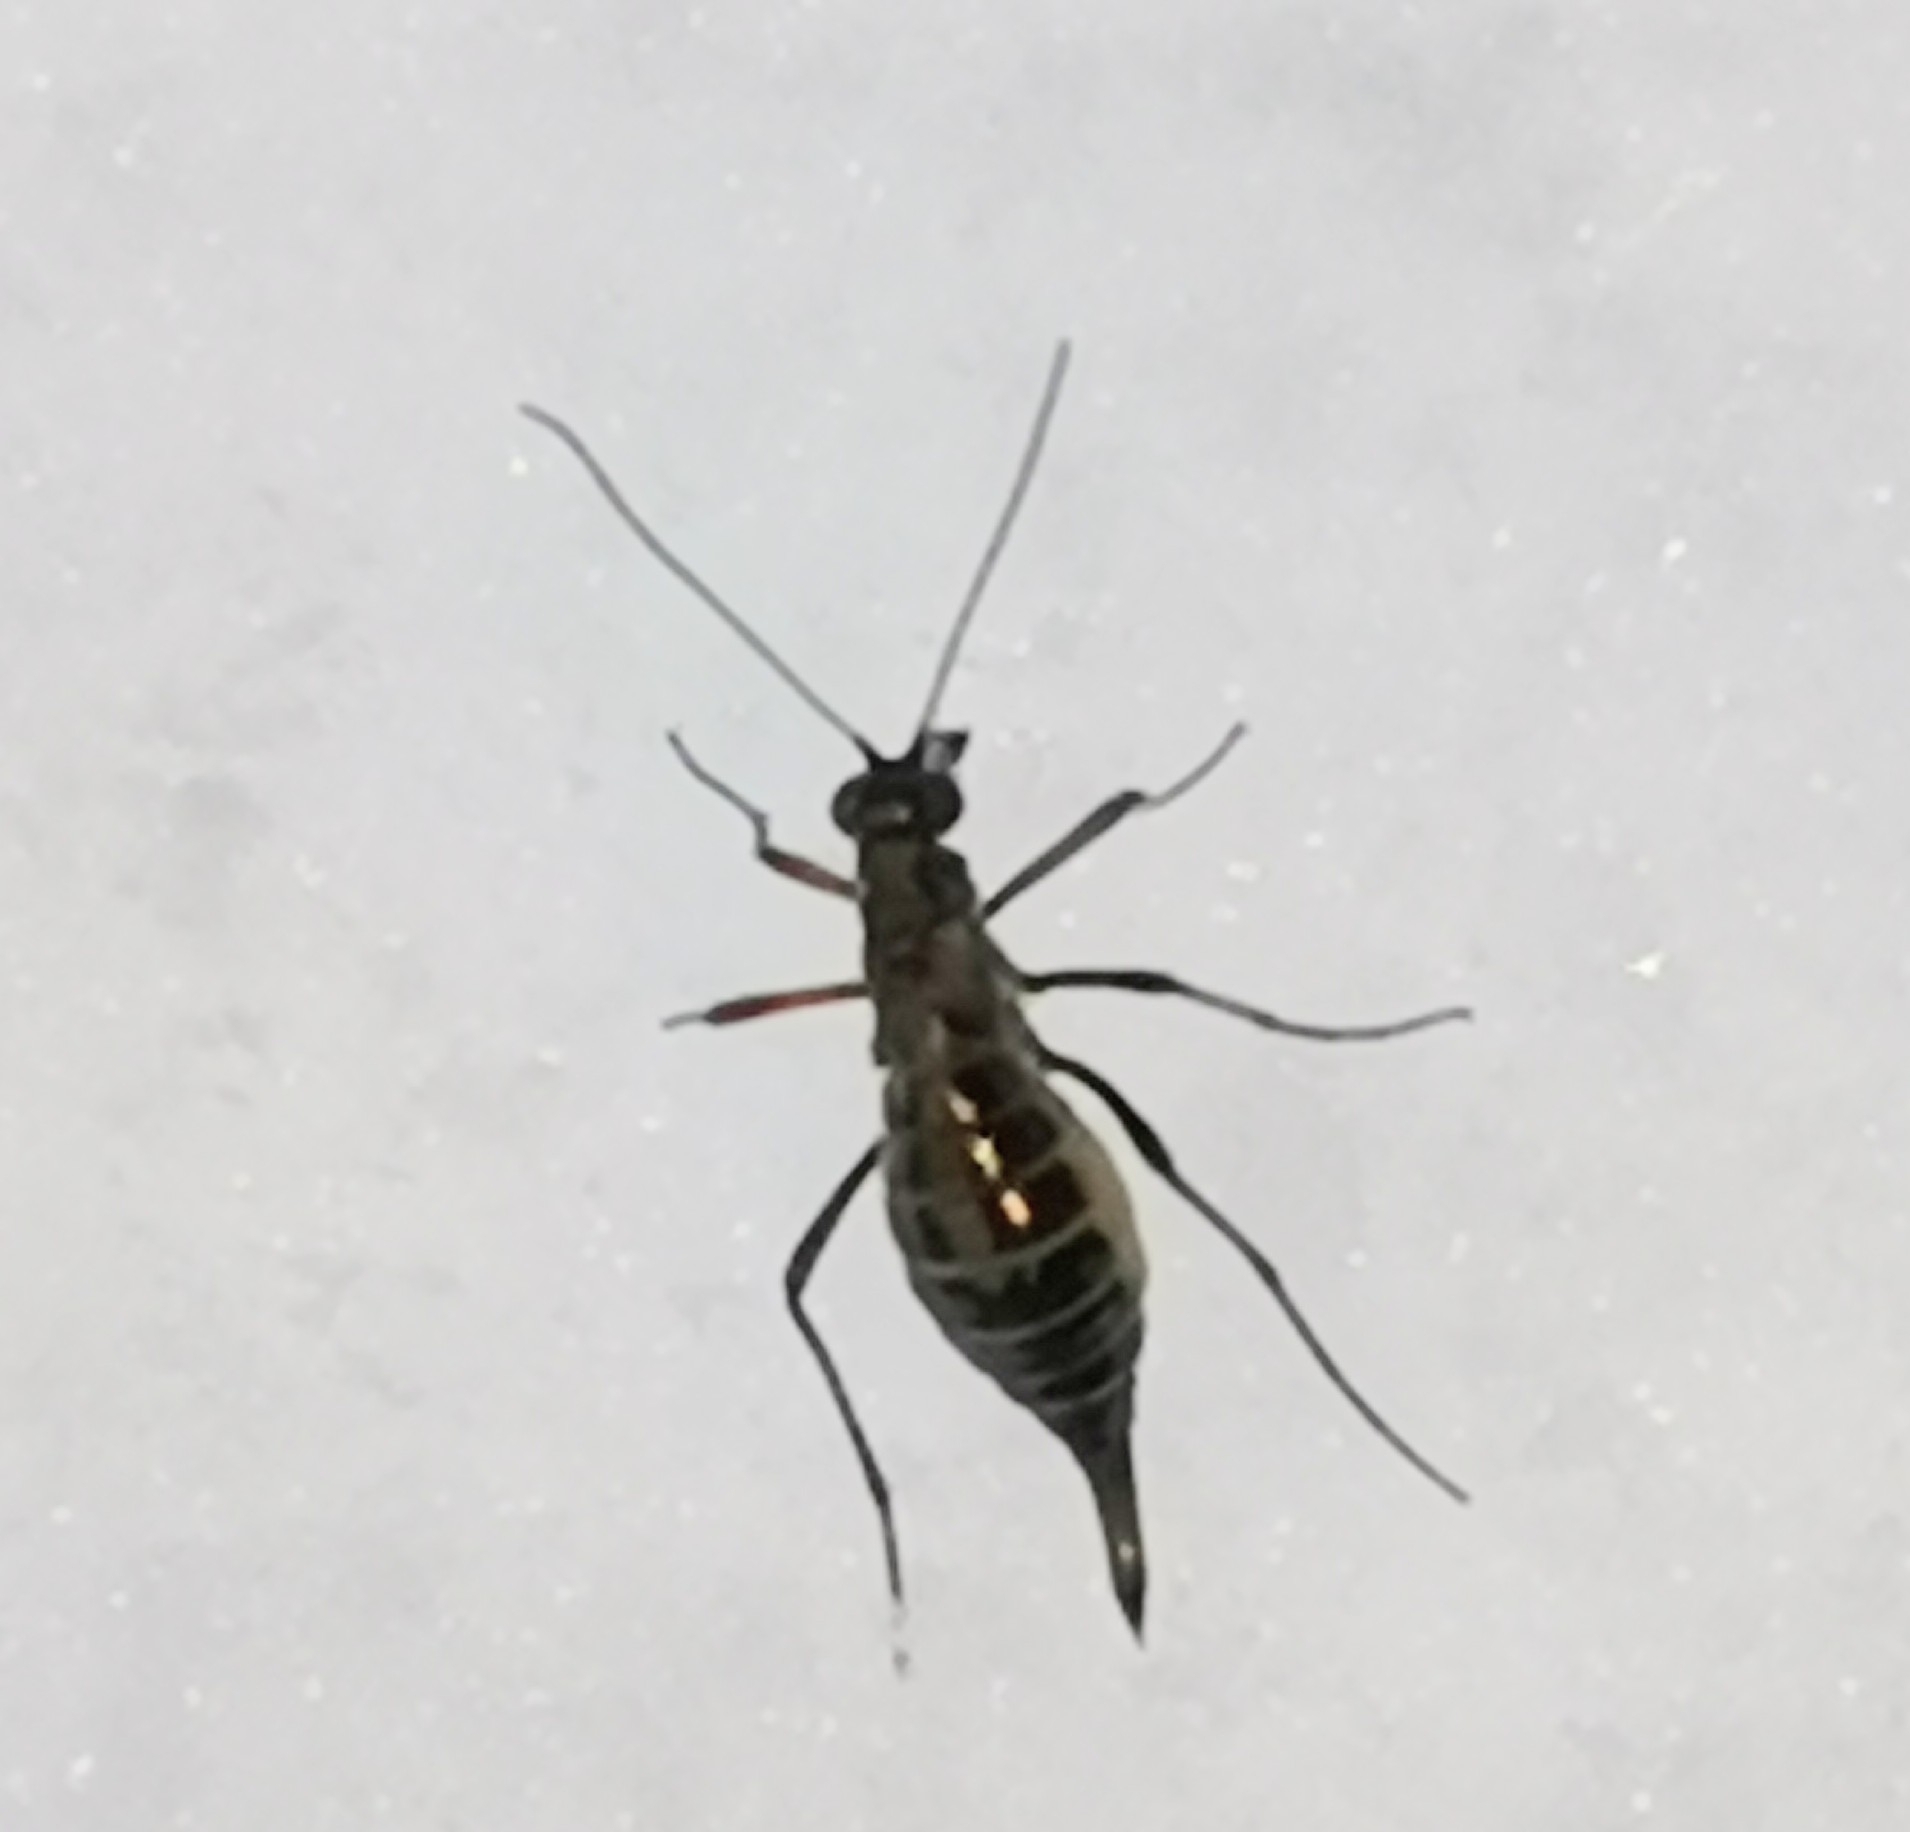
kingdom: Animalia
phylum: Arthropoda
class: Insecta
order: Mecoptera
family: Boreidae
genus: Boreus
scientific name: Boreus westwoodi
